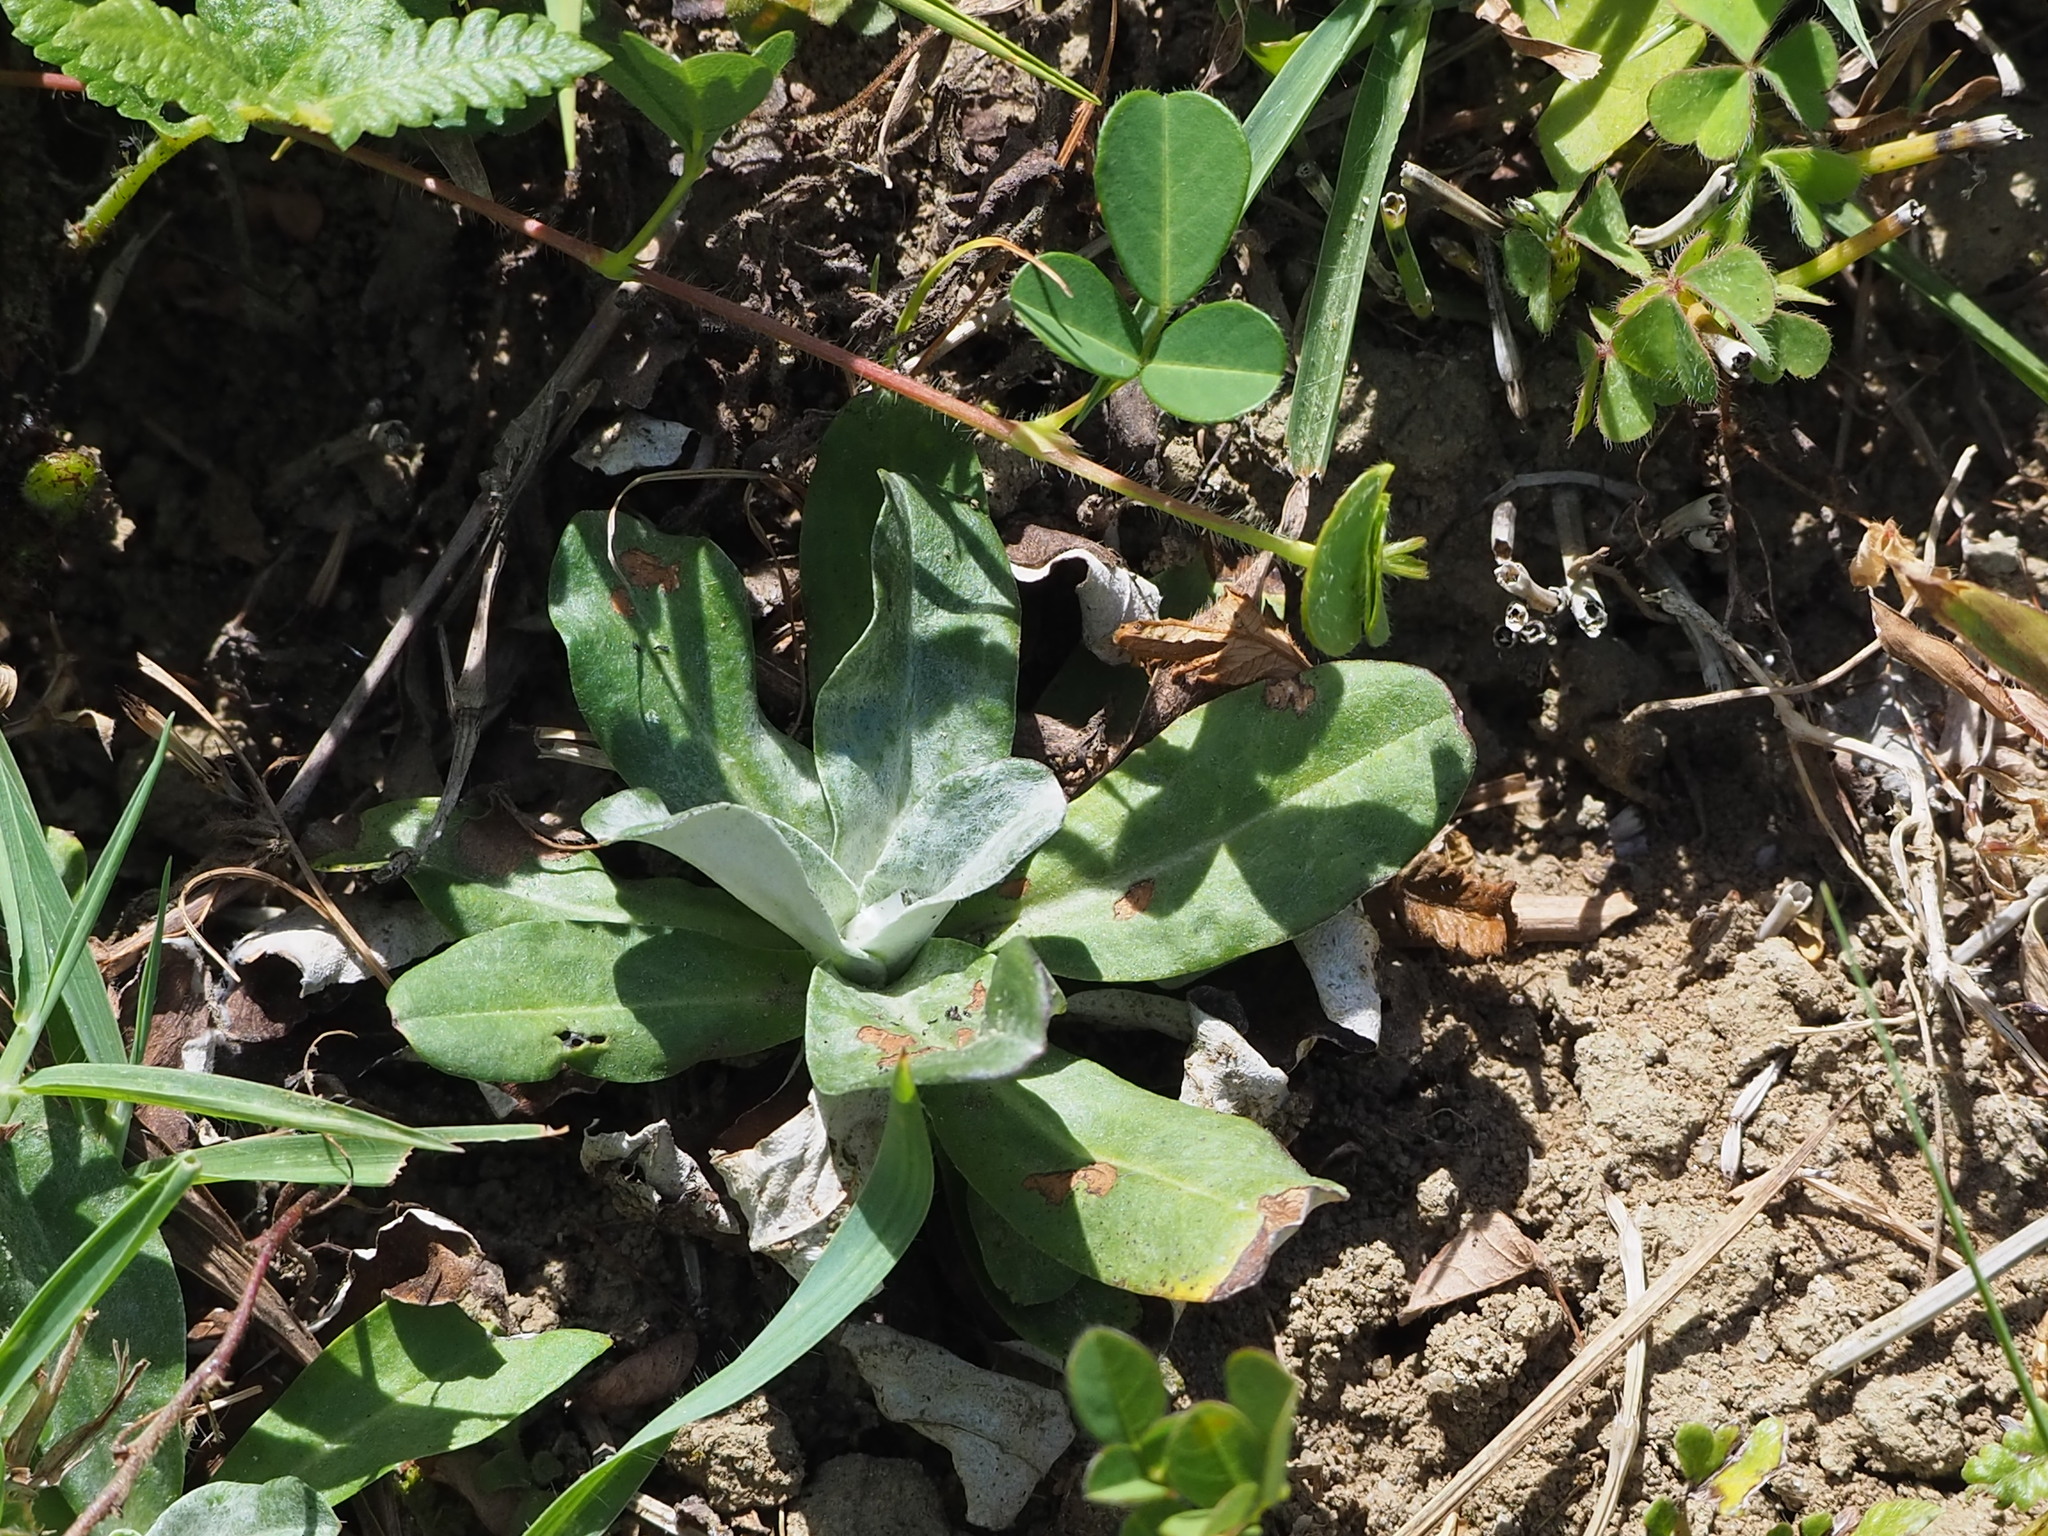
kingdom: Plantae
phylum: Tracheophyta
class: Magnoliopsida
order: Asterales
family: Asteraceae
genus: Gamochaeta
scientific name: Gamochaeta americana
